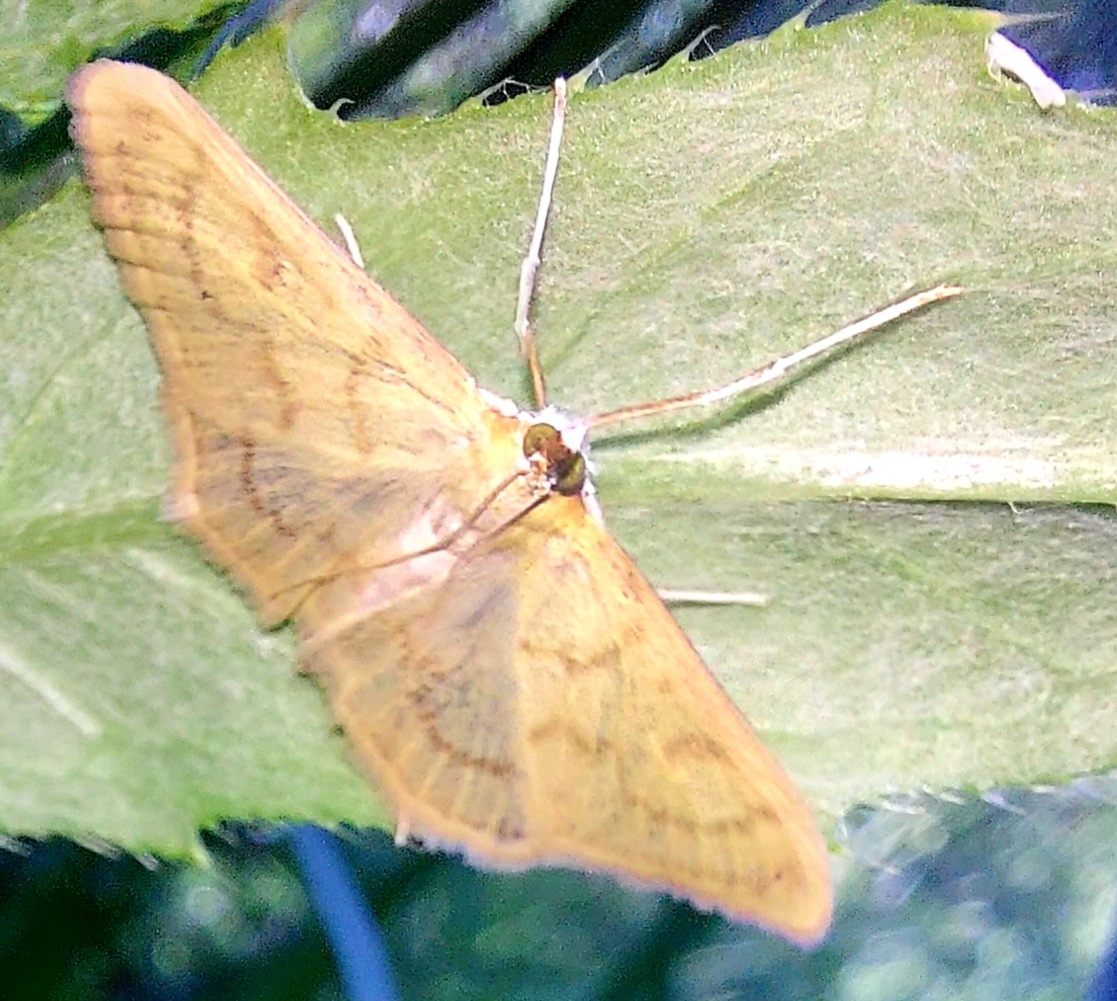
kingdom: Animalia
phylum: Arthropoda
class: Insecta
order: Lepidoptera
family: Crambidae
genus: Paratalanta
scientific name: Paratalanta pandalis
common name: Bordered pearl
